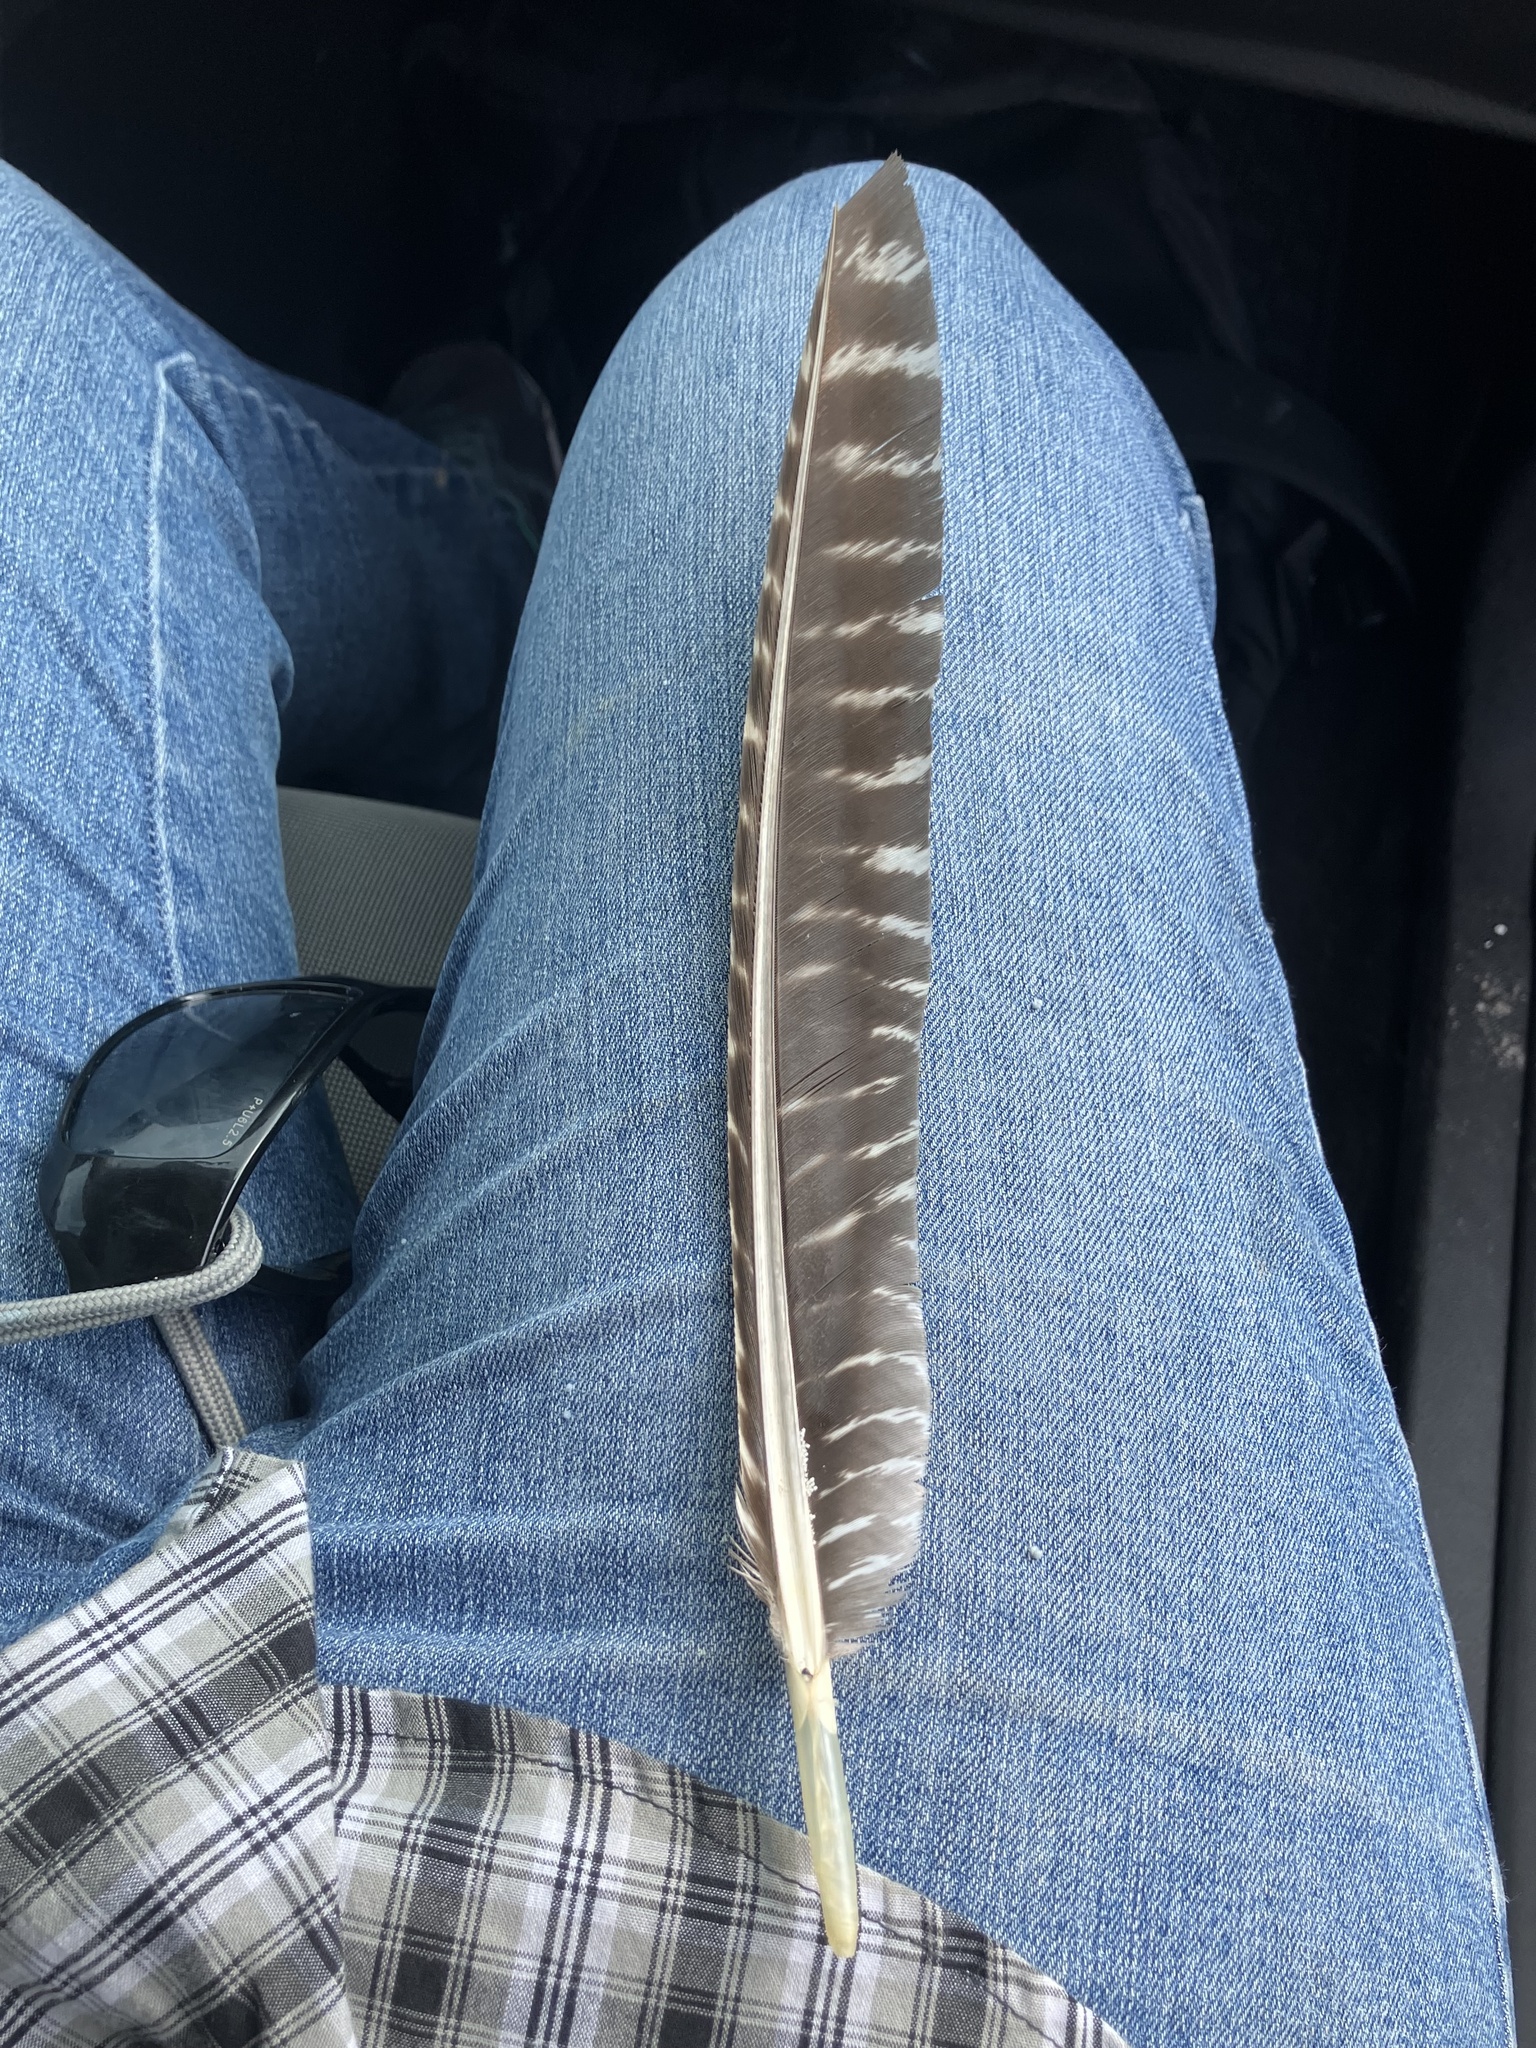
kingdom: Animalia
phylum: Chordata
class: Aves
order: Galliformes
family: Phasianidae
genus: Meleagris
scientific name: Meleagris gallopavo
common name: Wild turkey
